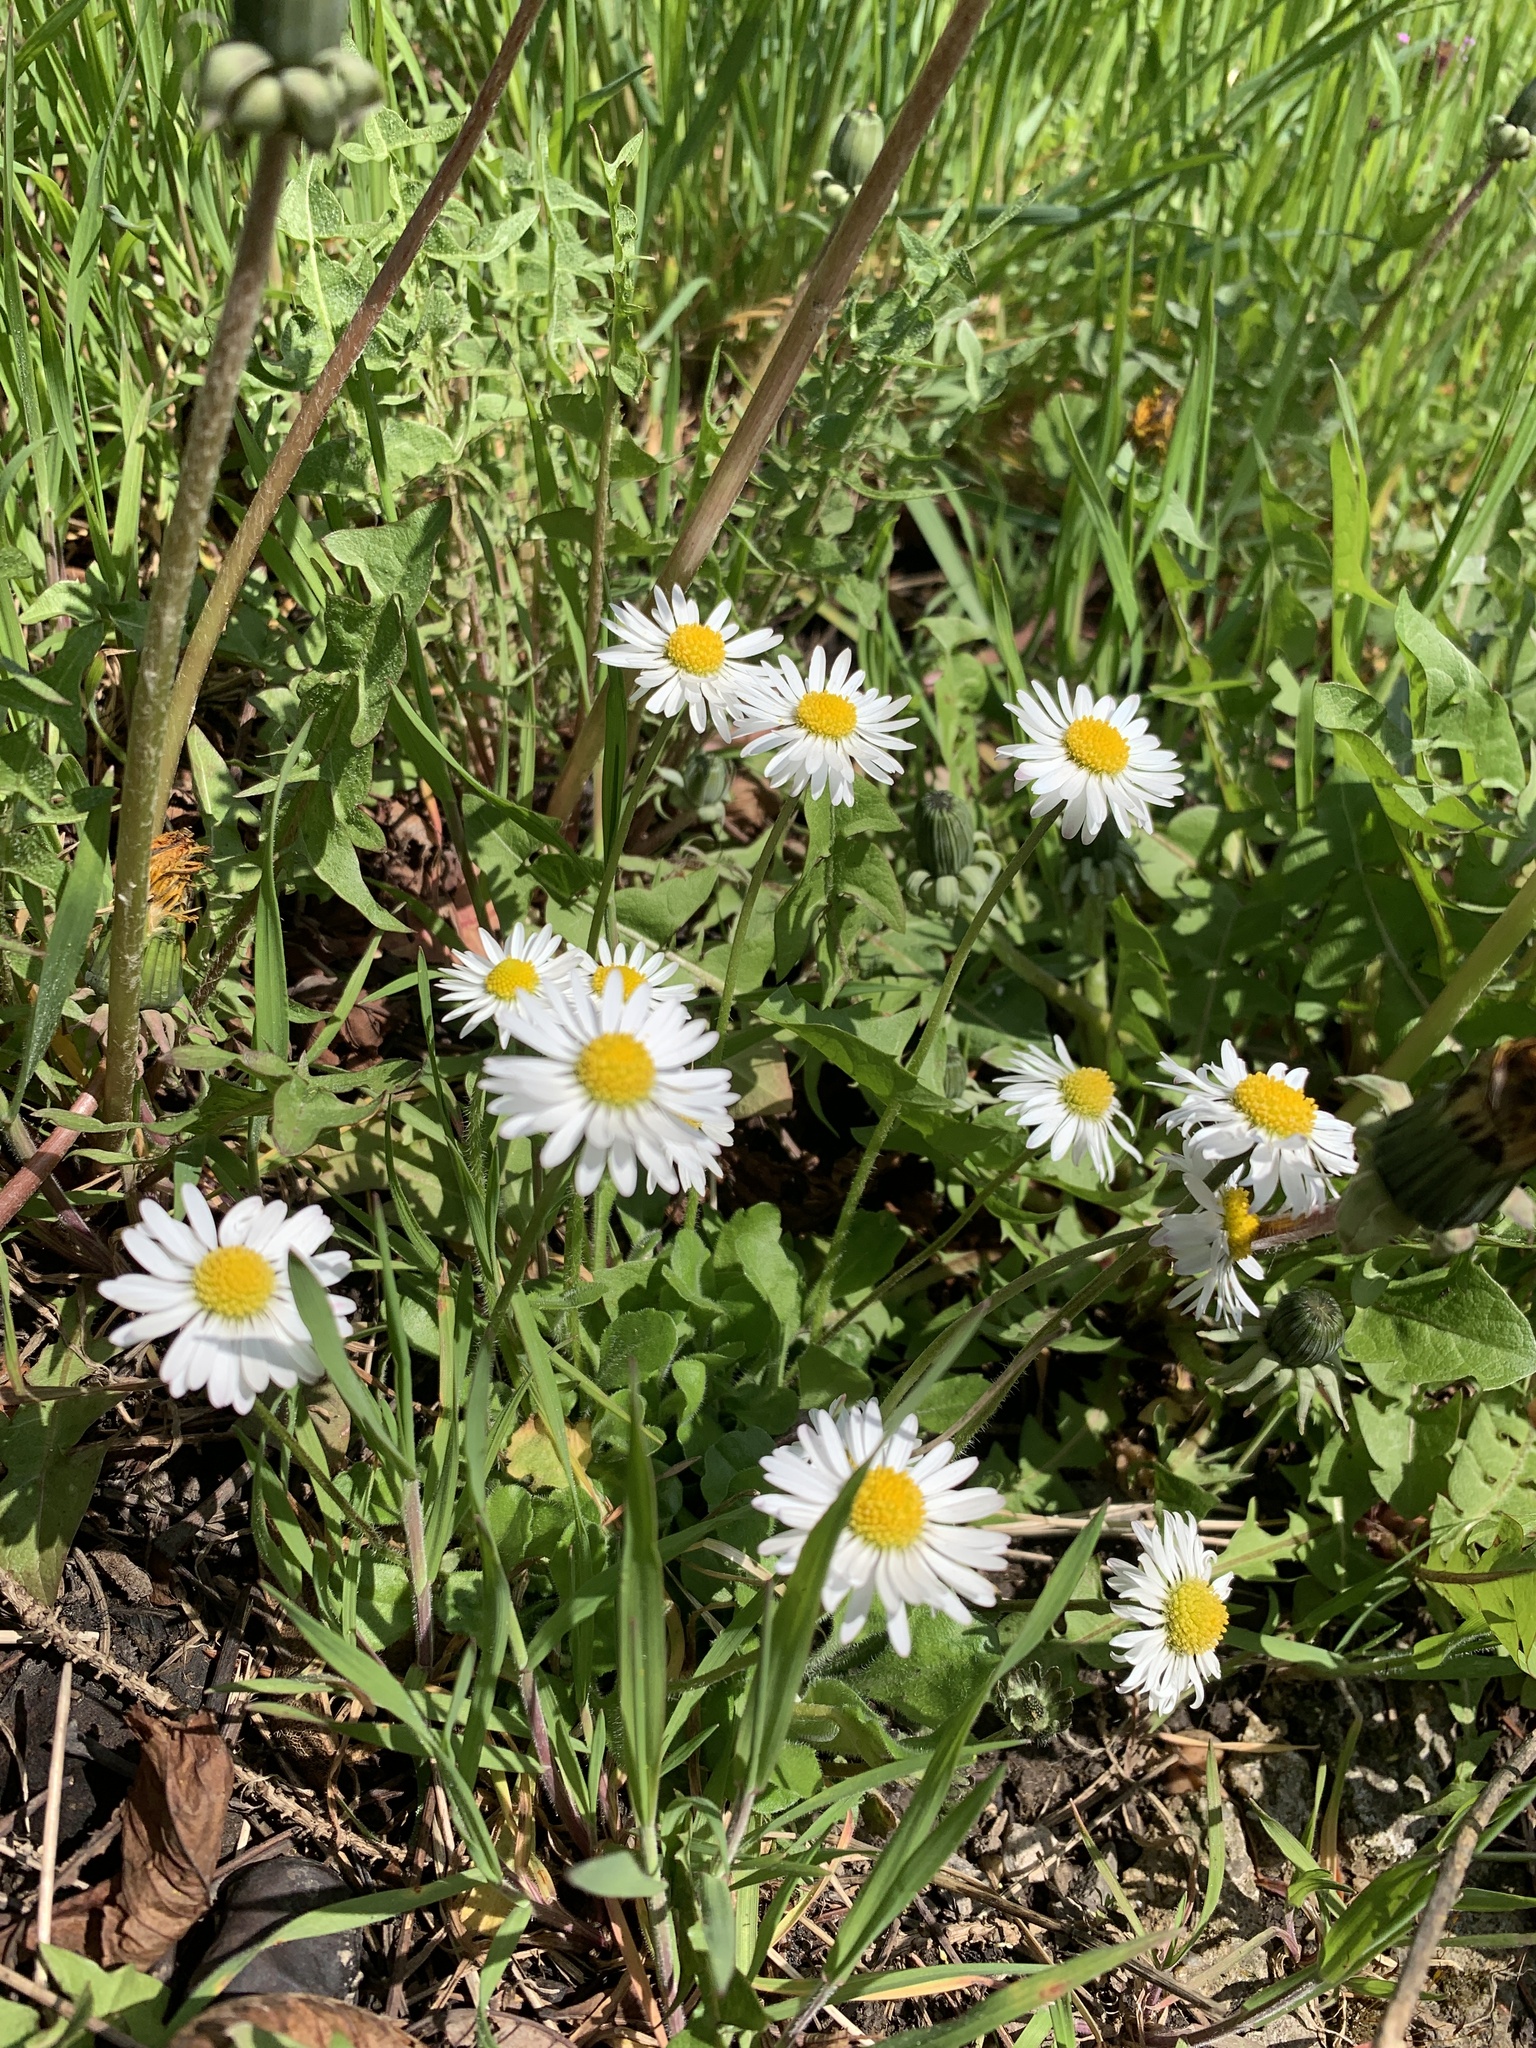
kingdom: Plantae
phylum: Tracheophyta
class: Magnoliopsida
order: Asterales
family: Asteraceae
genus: Bellis
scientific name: Bellis perennis
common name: Lawndaisy
